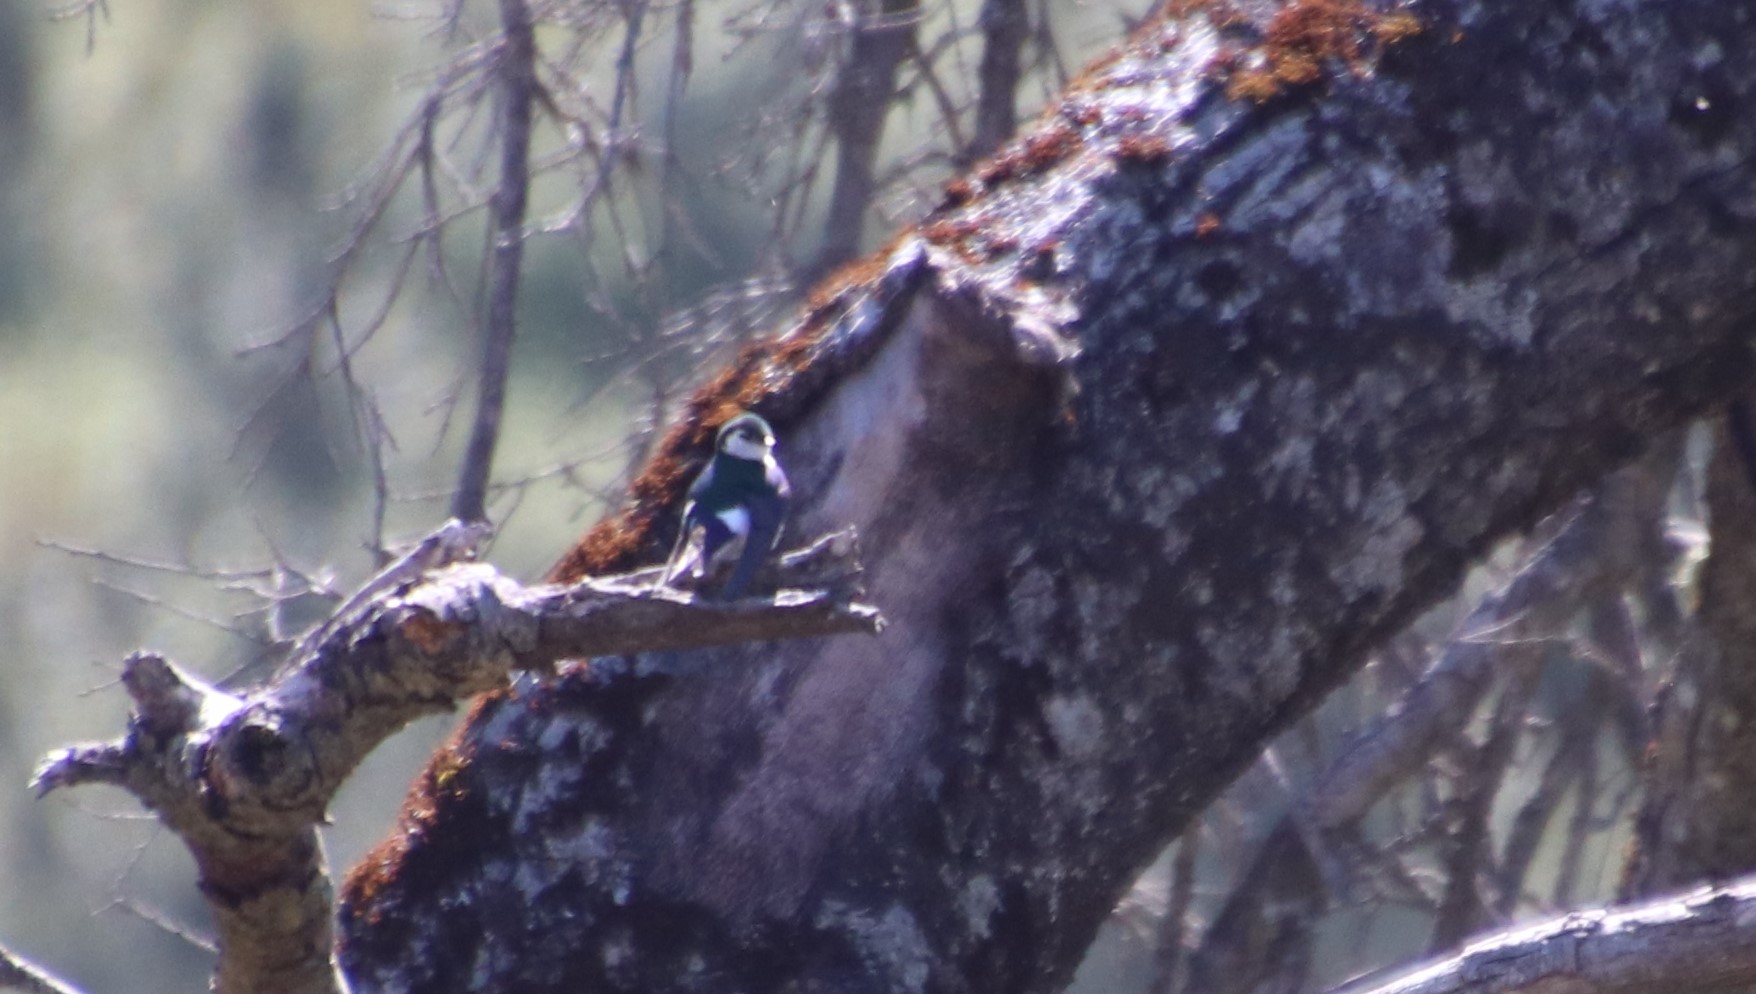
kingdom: Animalia
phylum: Chordata
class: Aves
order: Passeriformes
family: Hirundinidae
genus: Tachycineta
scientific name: Tachycineta thalassina
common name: Violet-green swallow
